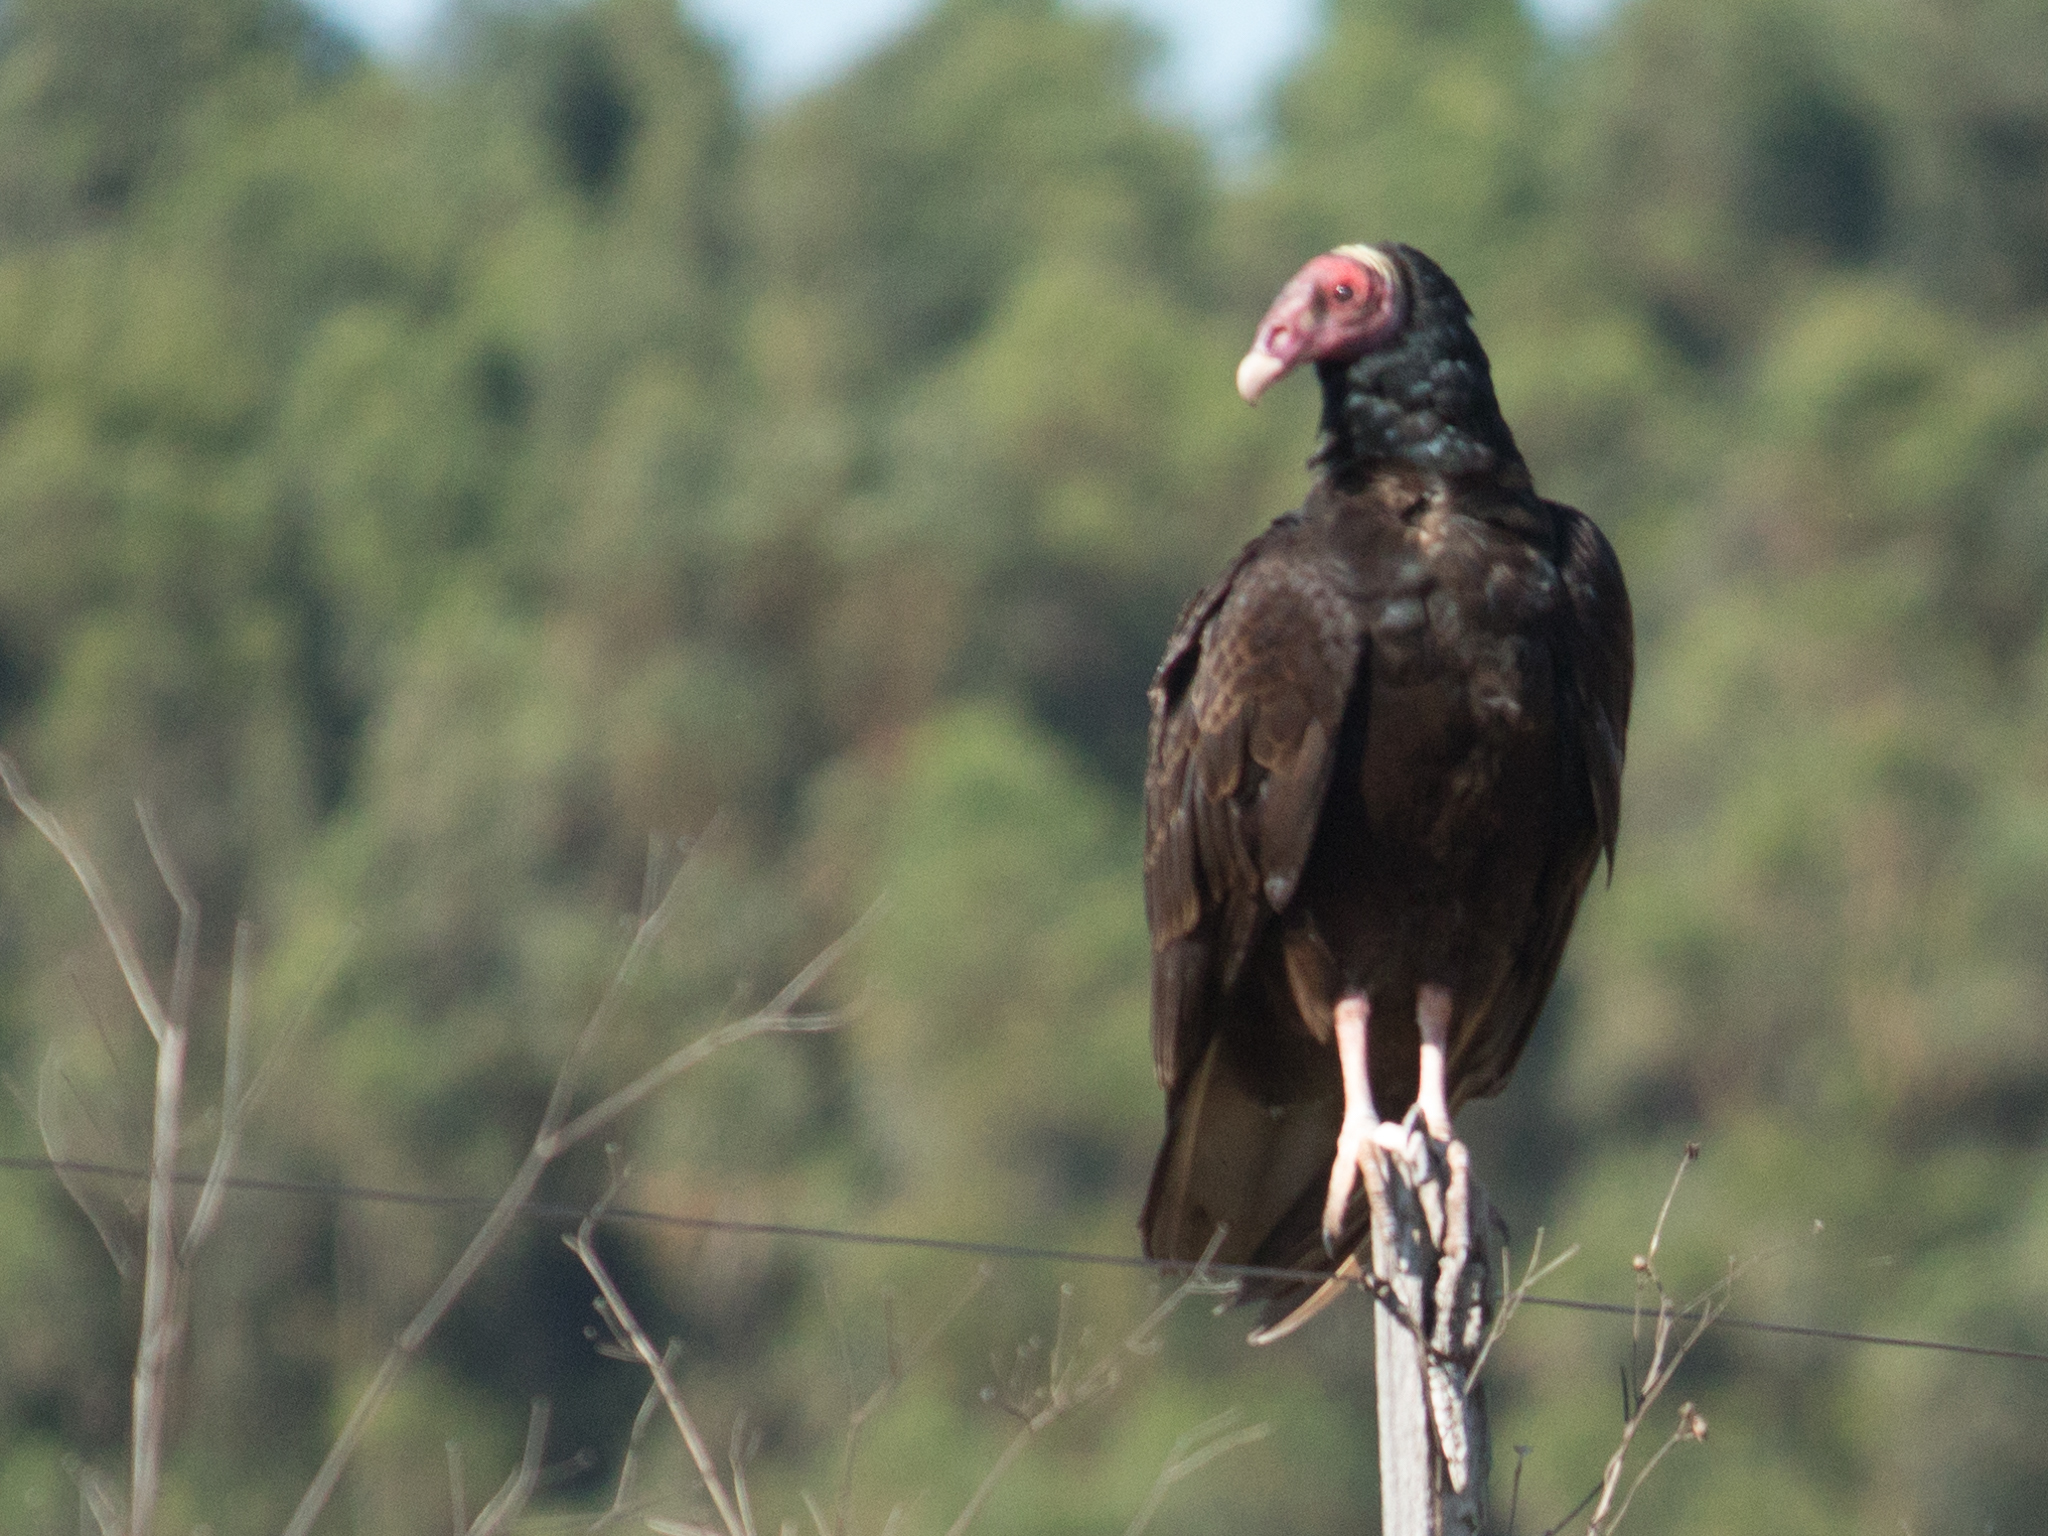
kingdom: Animalia
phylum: Chordata
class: Aves
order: Accipitriformes
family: Cathartidae
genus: Cathartes
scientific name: Cathartes aura
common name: Turkey vulture
